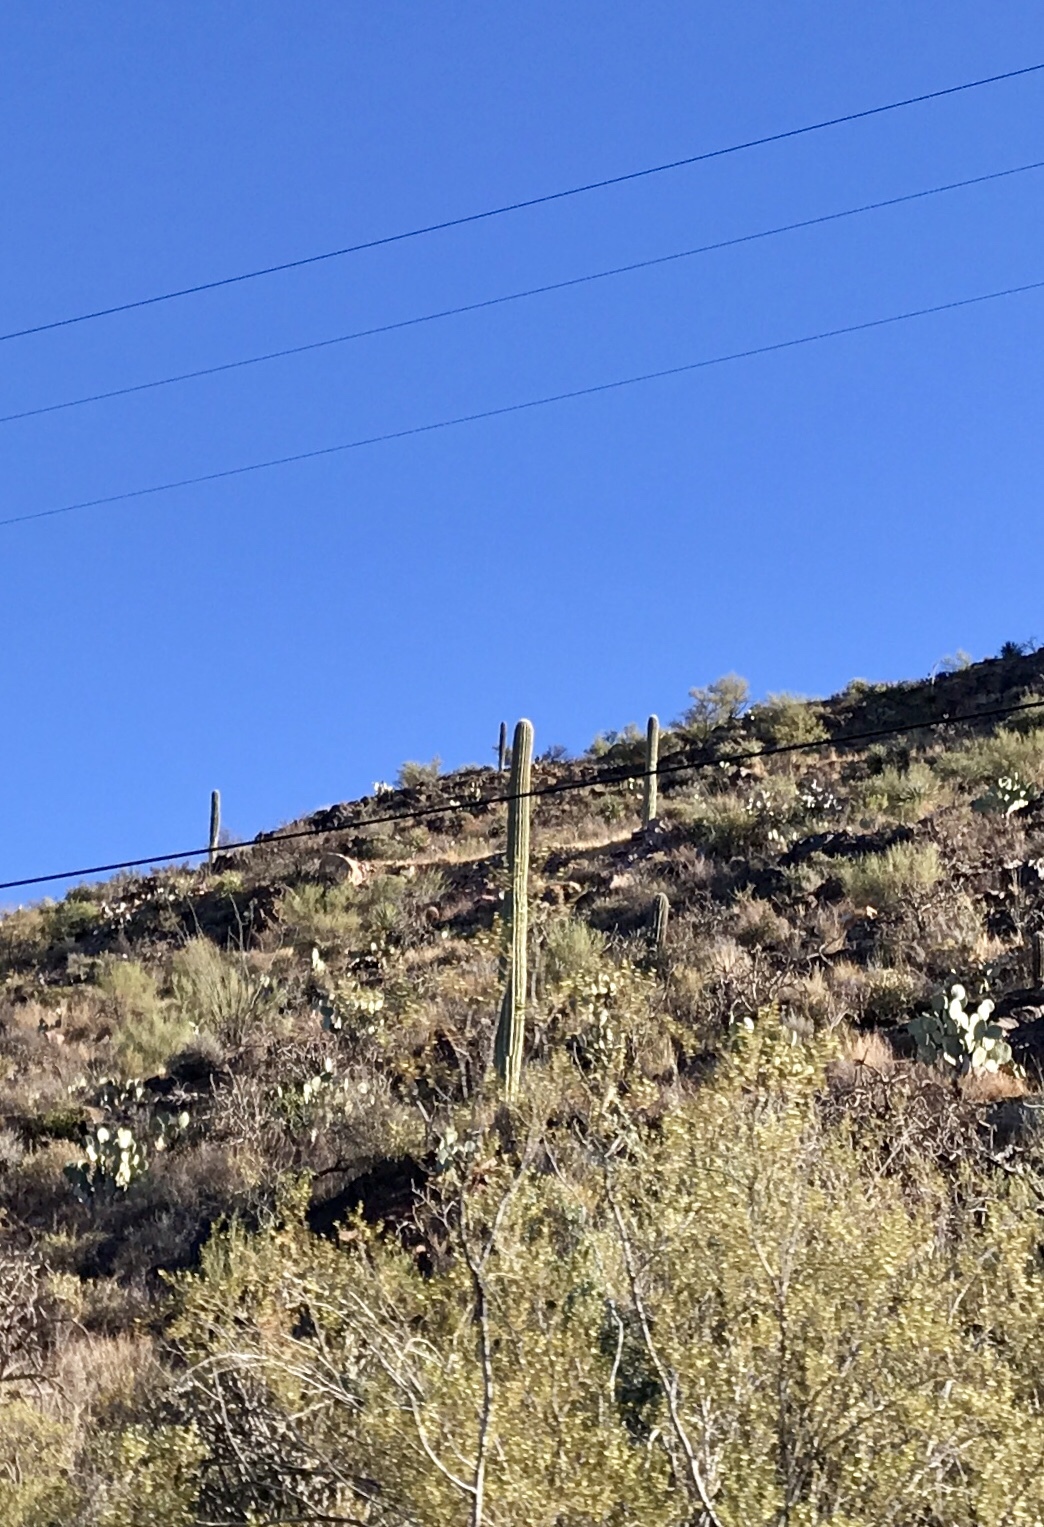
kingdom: Plantae
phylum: Tracheophyta
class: Magnoliopsida
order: Caryophyllales
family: Cactaceae
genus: Carnegiea
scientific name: Carnegiea gigantea
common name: Saguaro
